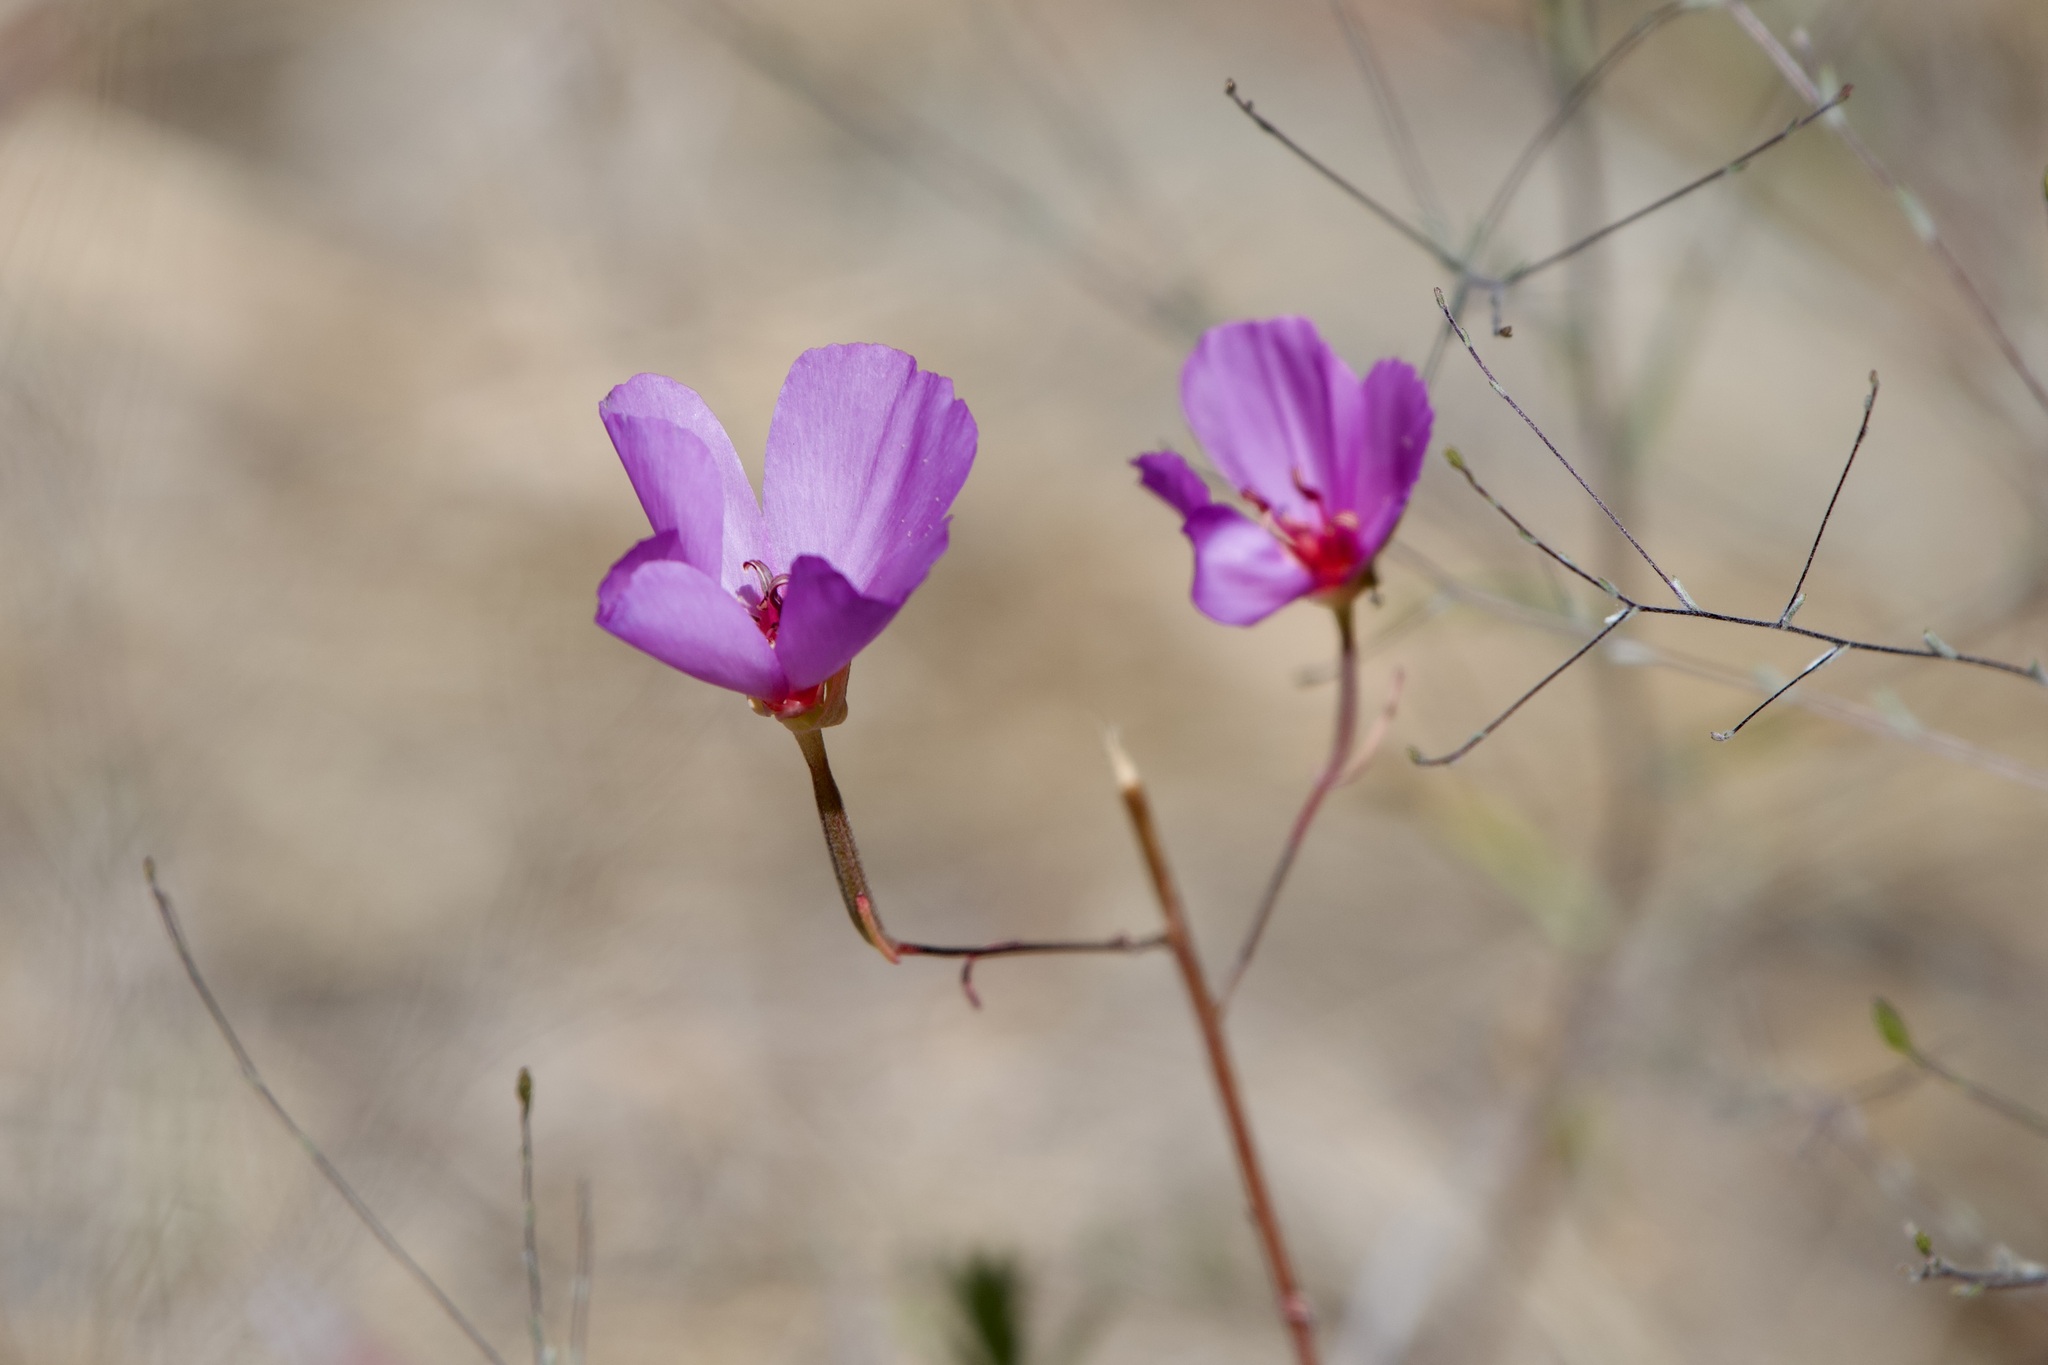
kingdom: Plantae
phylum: Tracheophyta
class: Magnoliopsida
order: Myrtales
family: Onagraceae
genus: Clarkia
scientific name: Clarkia rubicunda
